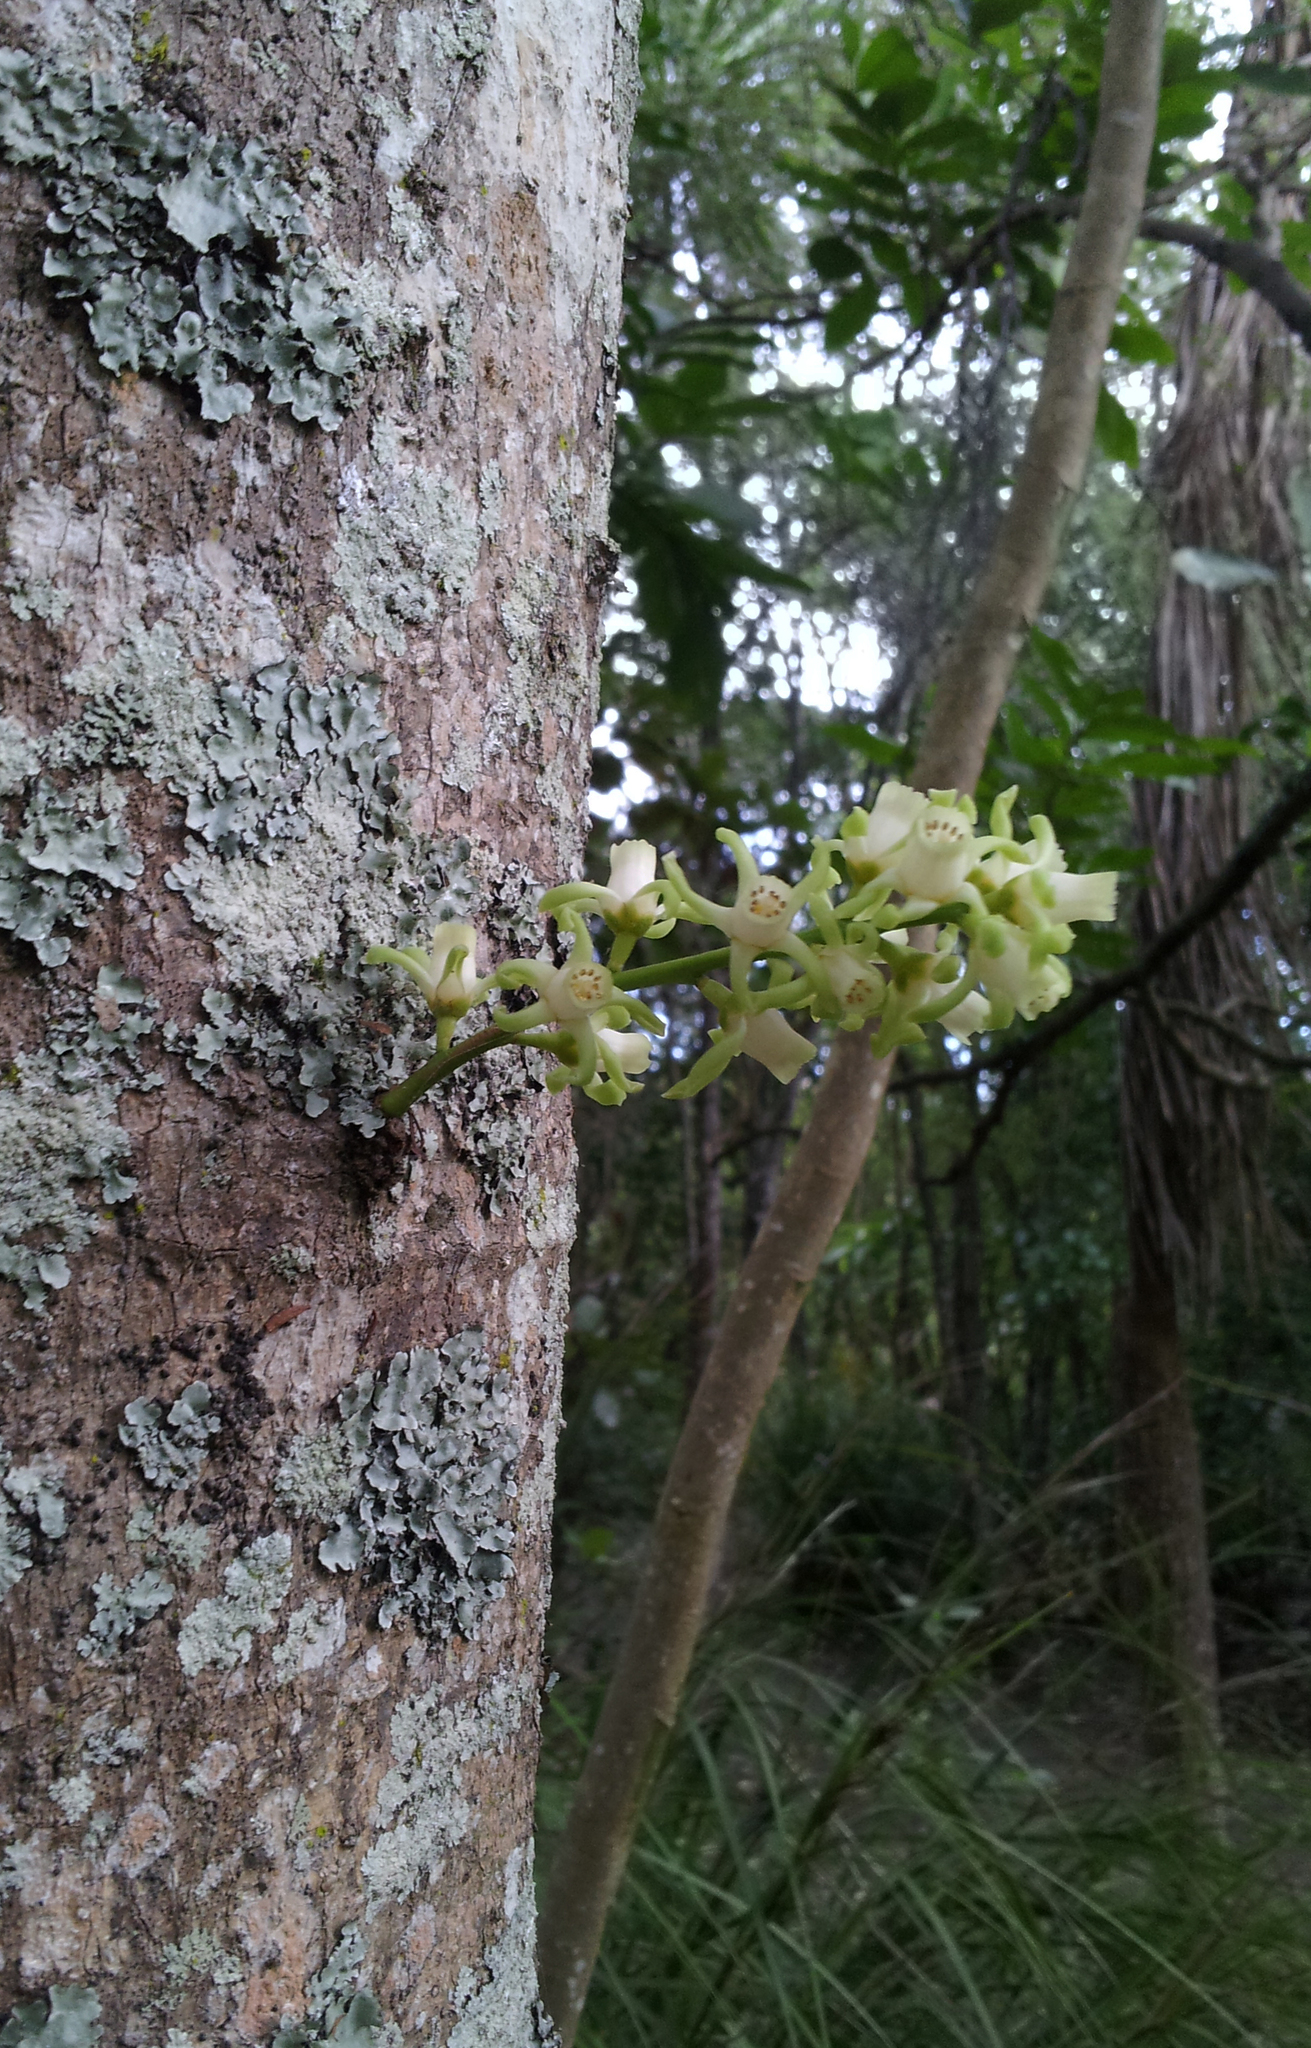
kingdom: Plantae
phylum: Tracheophyta
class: Magnoliopsida
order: Sapindales
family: Meliaceae
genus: Didymocheton
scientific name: Didymocheton spectabilis
